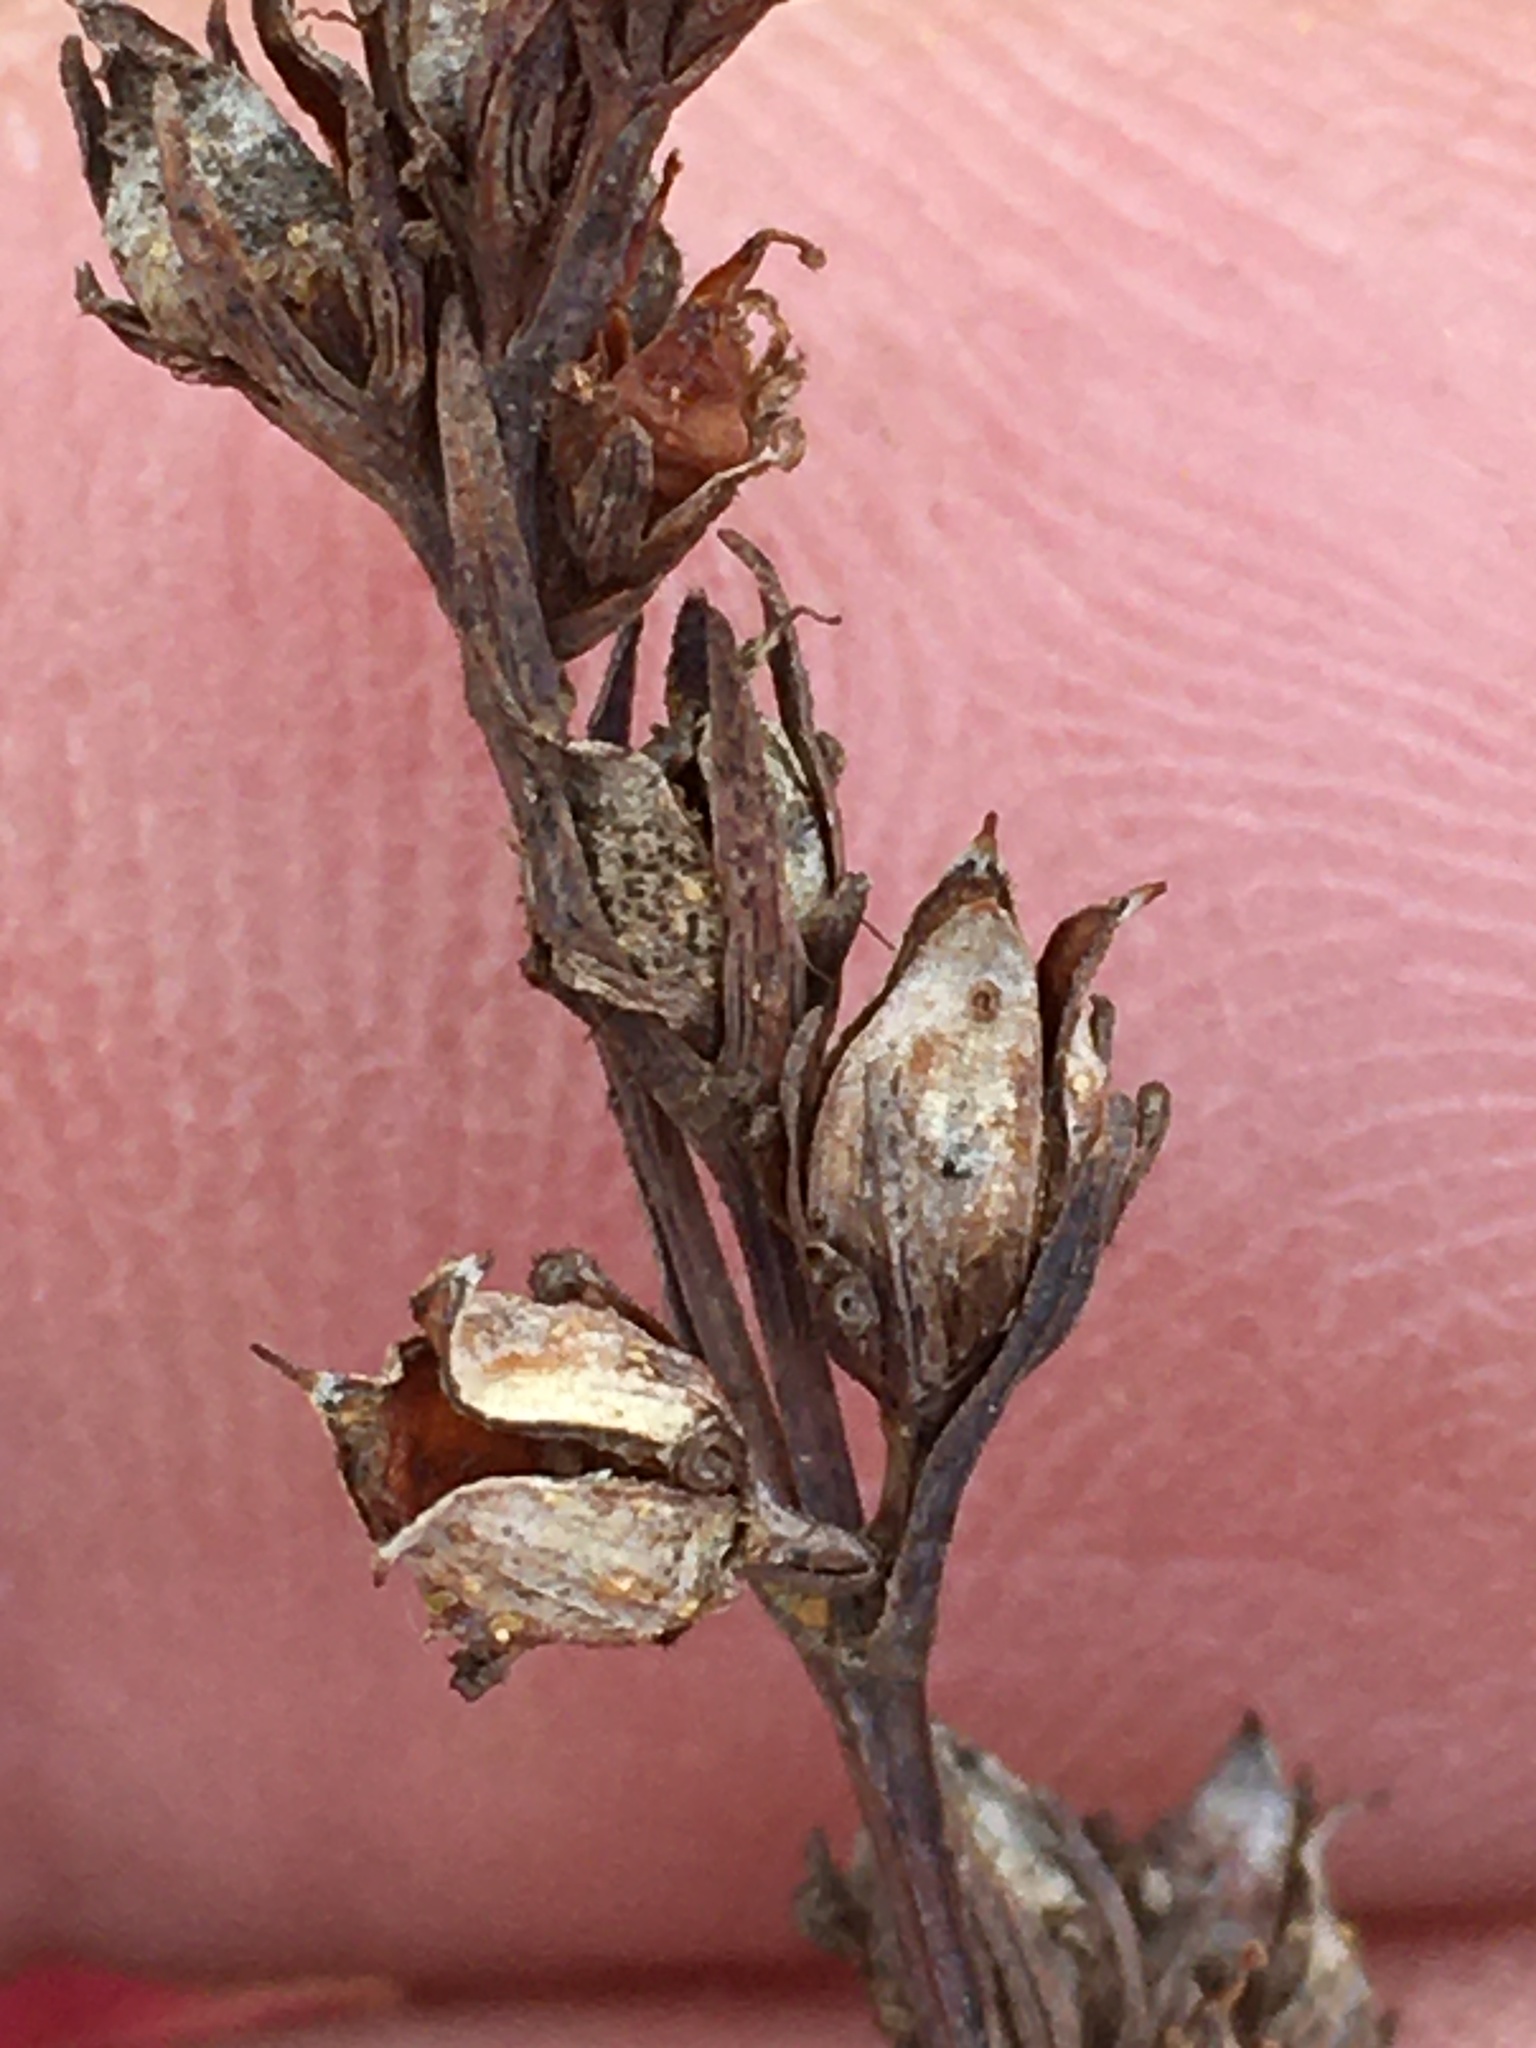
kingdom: Plantae
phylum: Tracheophyta
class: Magnoliopsida
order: Malpighiales
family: Hypericaceae
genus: Hypericum
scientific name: Hypericum drummondii
